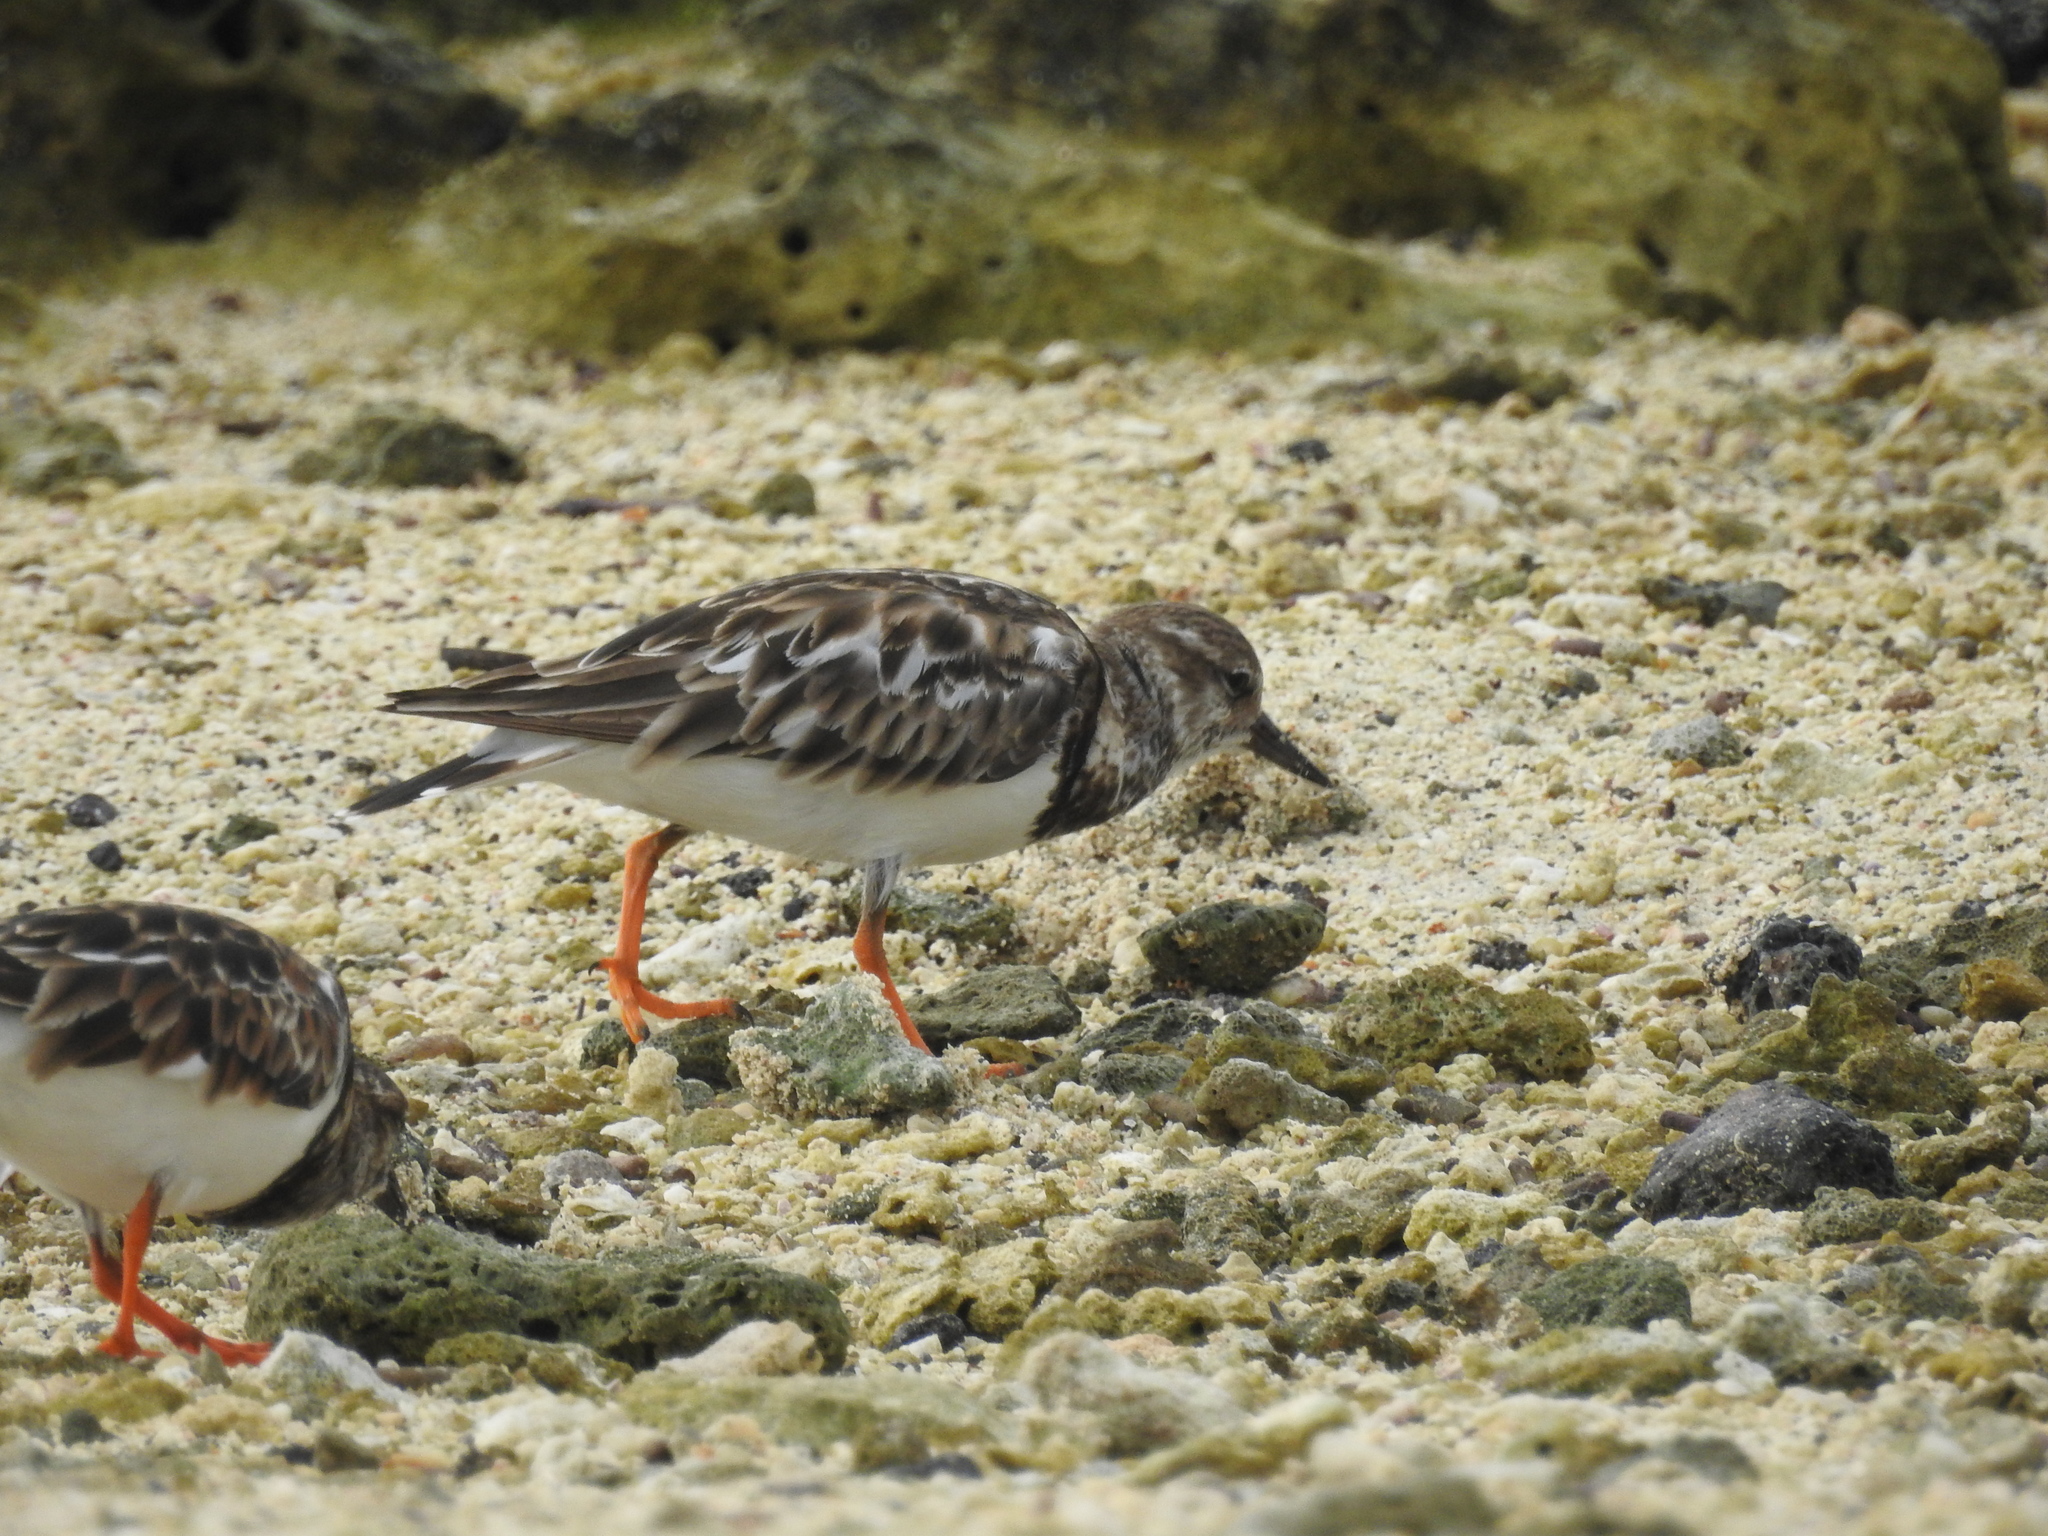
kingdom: Animalia
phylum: Chordata
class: Aves
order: Charadriiformes
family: Scolopacidae
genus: Arenaria
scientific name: Arenaria interpres
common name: Ruddy turnstone
